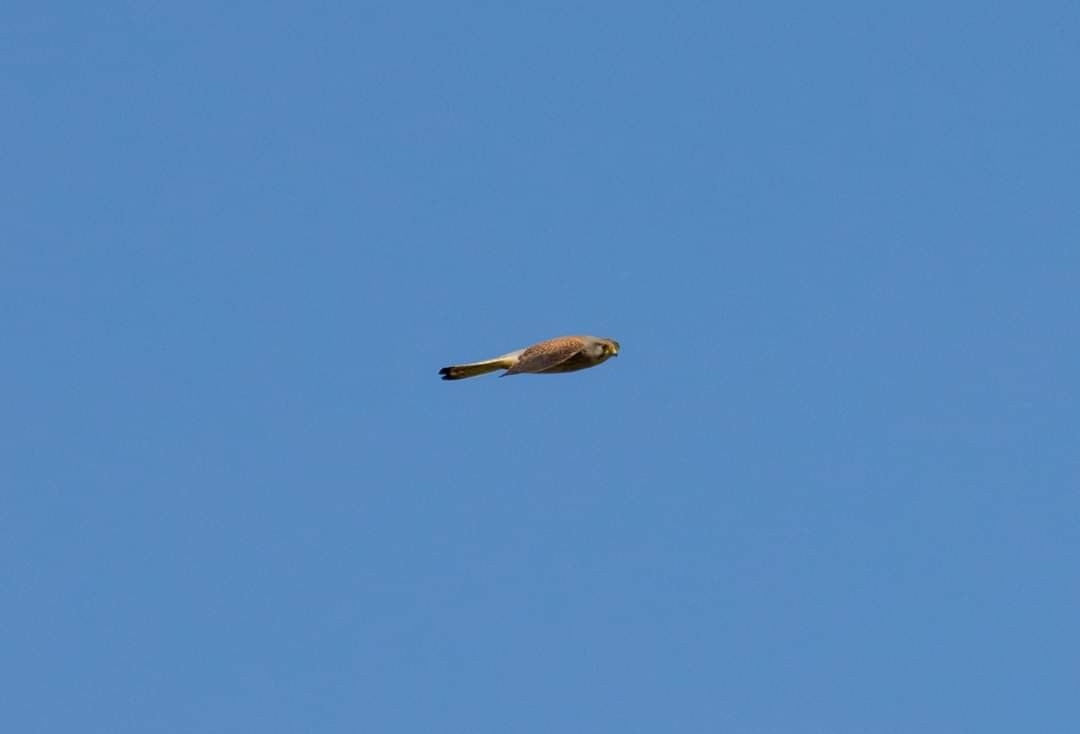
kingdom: Animalia
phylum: Chordata
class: Aves
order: Falconiformes
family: Falconidae
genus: Falco
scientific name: Falco tinnunculus
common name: Common kestrel
